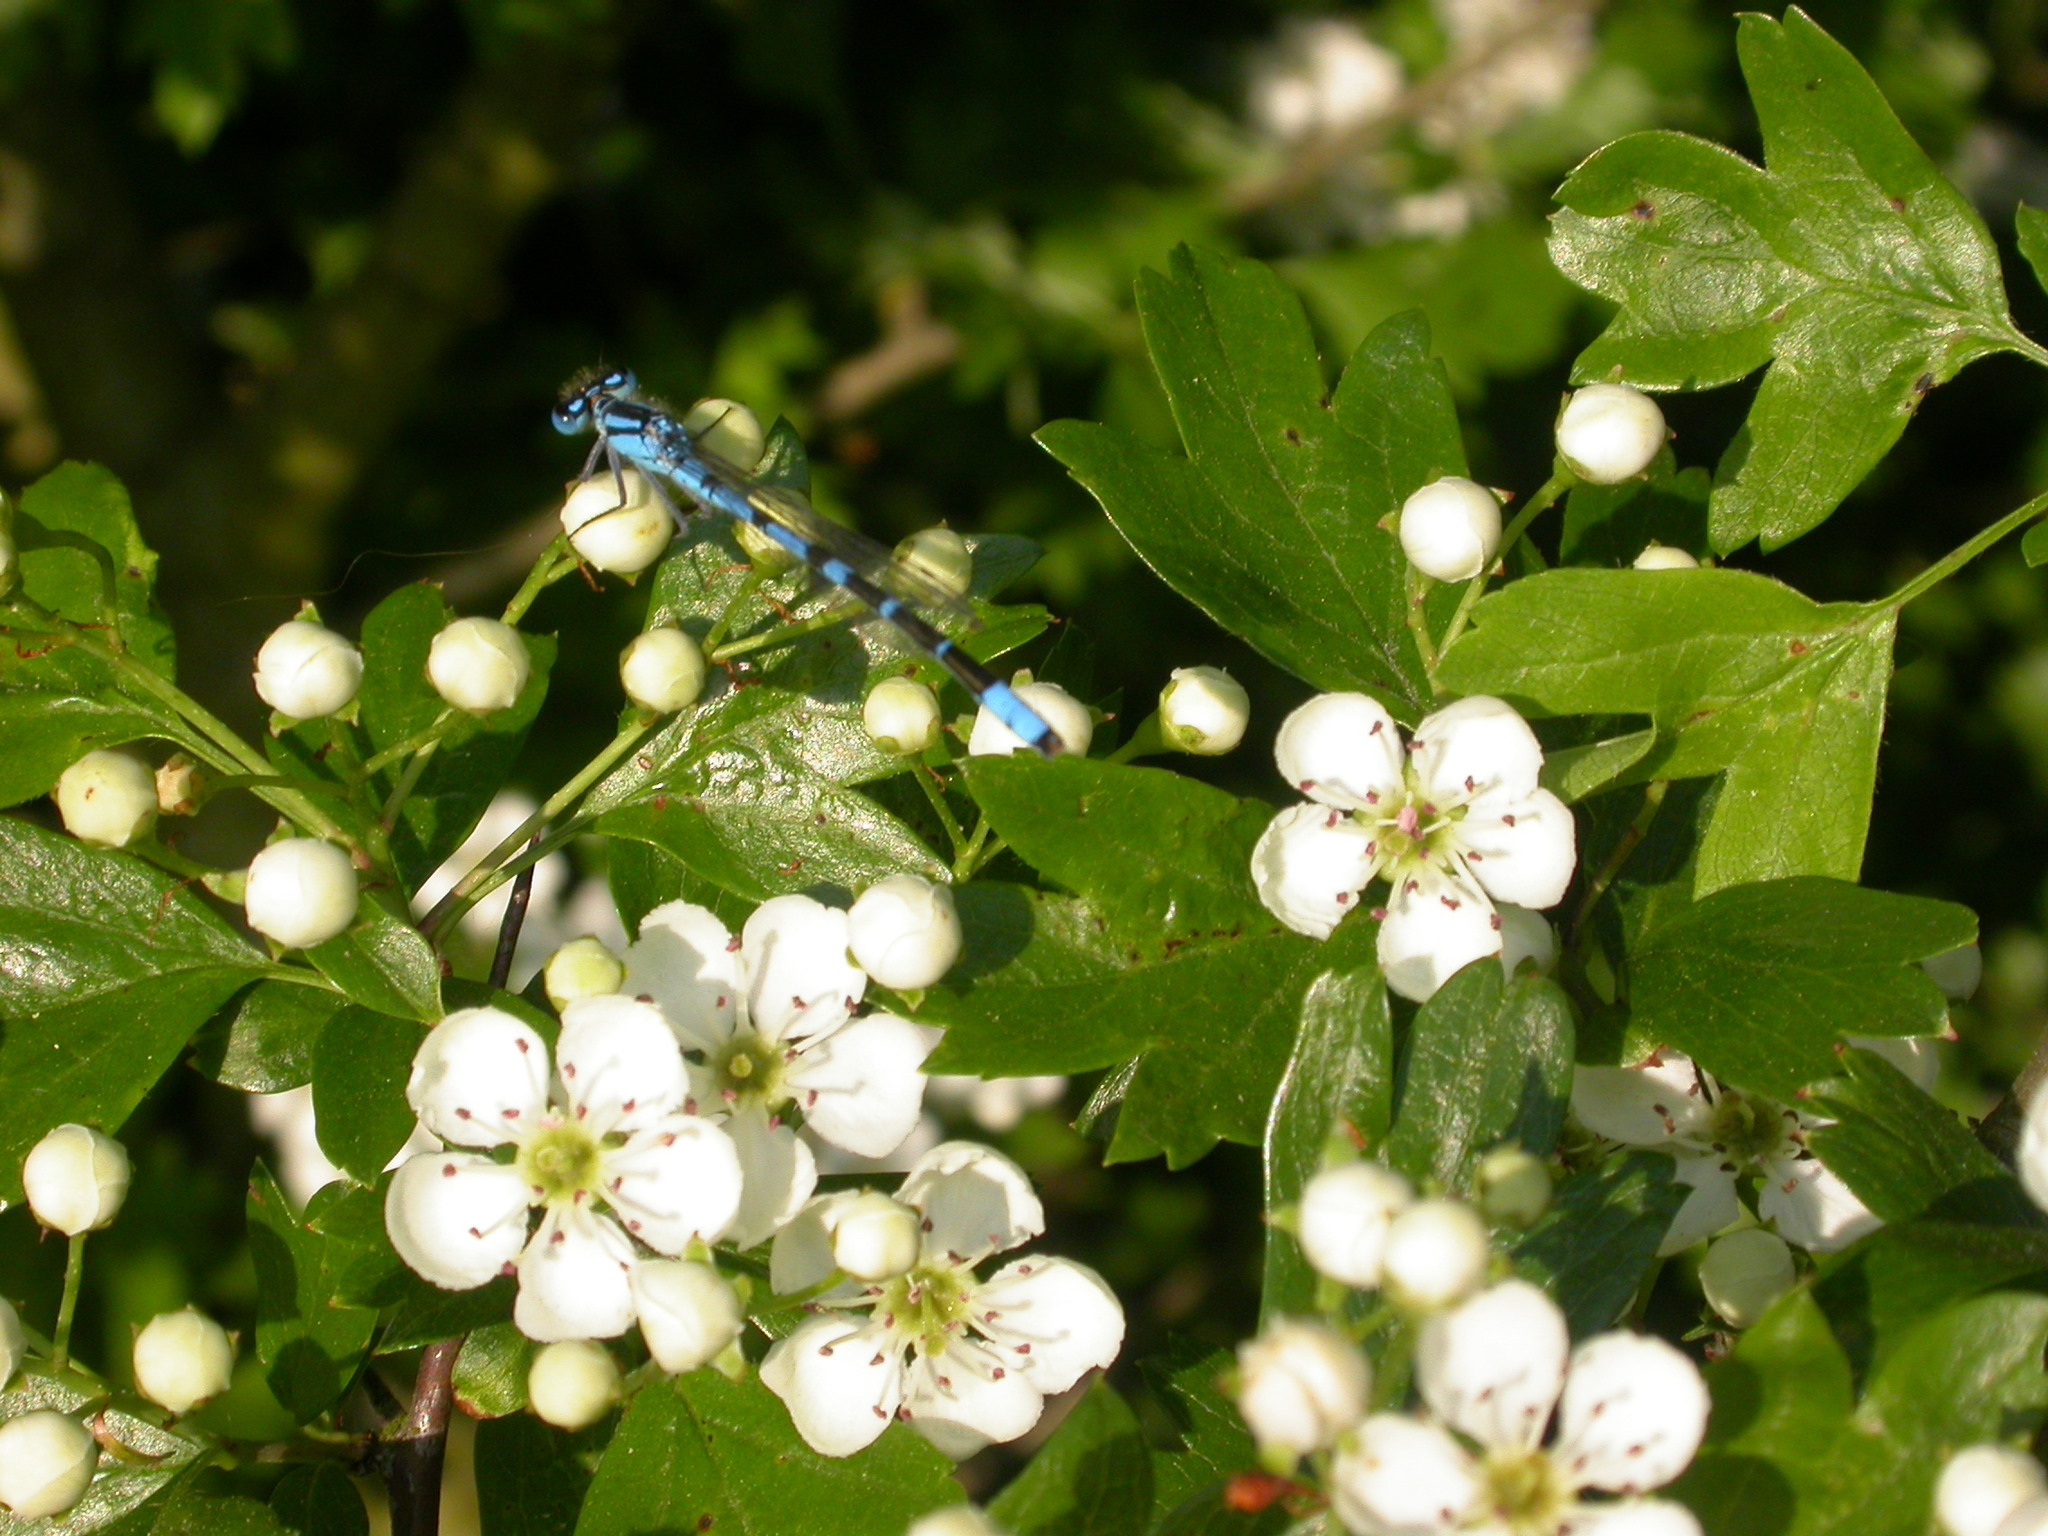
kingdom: Animalia
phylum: Arthropoda
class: Insecta
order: Odonata
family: Coenagrionidae
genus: Enallagma
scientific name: Enallagma cyathigerum
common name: Common blue damselfly
